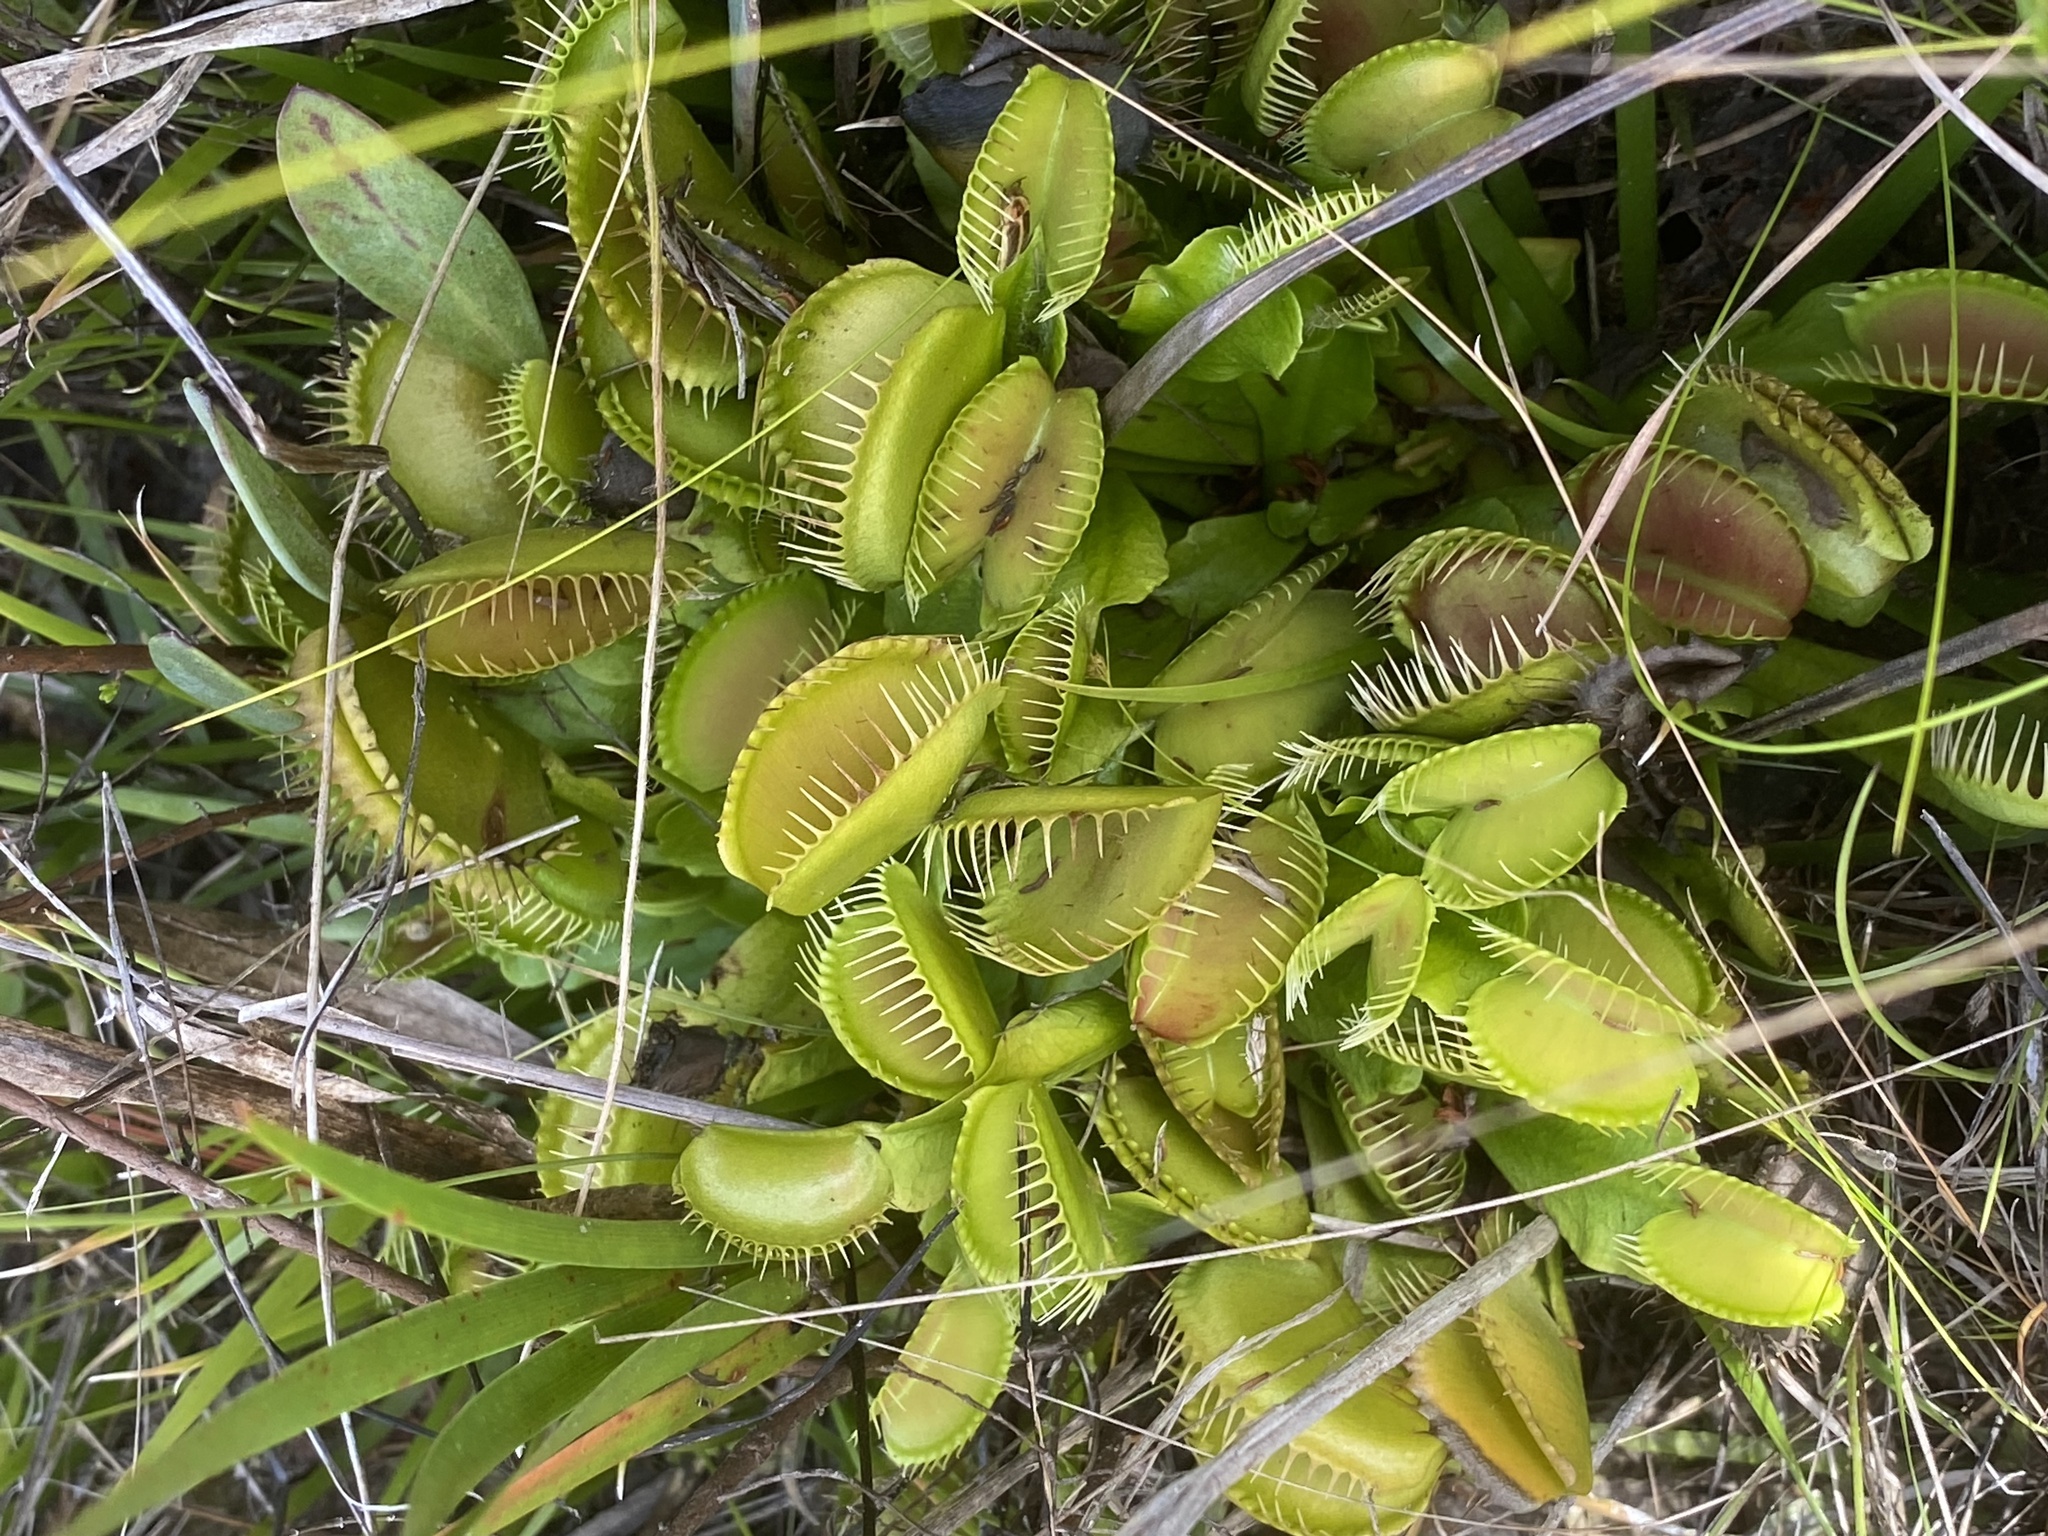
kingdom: Plantae
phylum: Tracheophyta
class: Magnoliopsida
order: Caryophyllales
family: Droseraceae
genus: Dionaea
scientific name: Dionaea muscipula
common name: Venus flytrap
